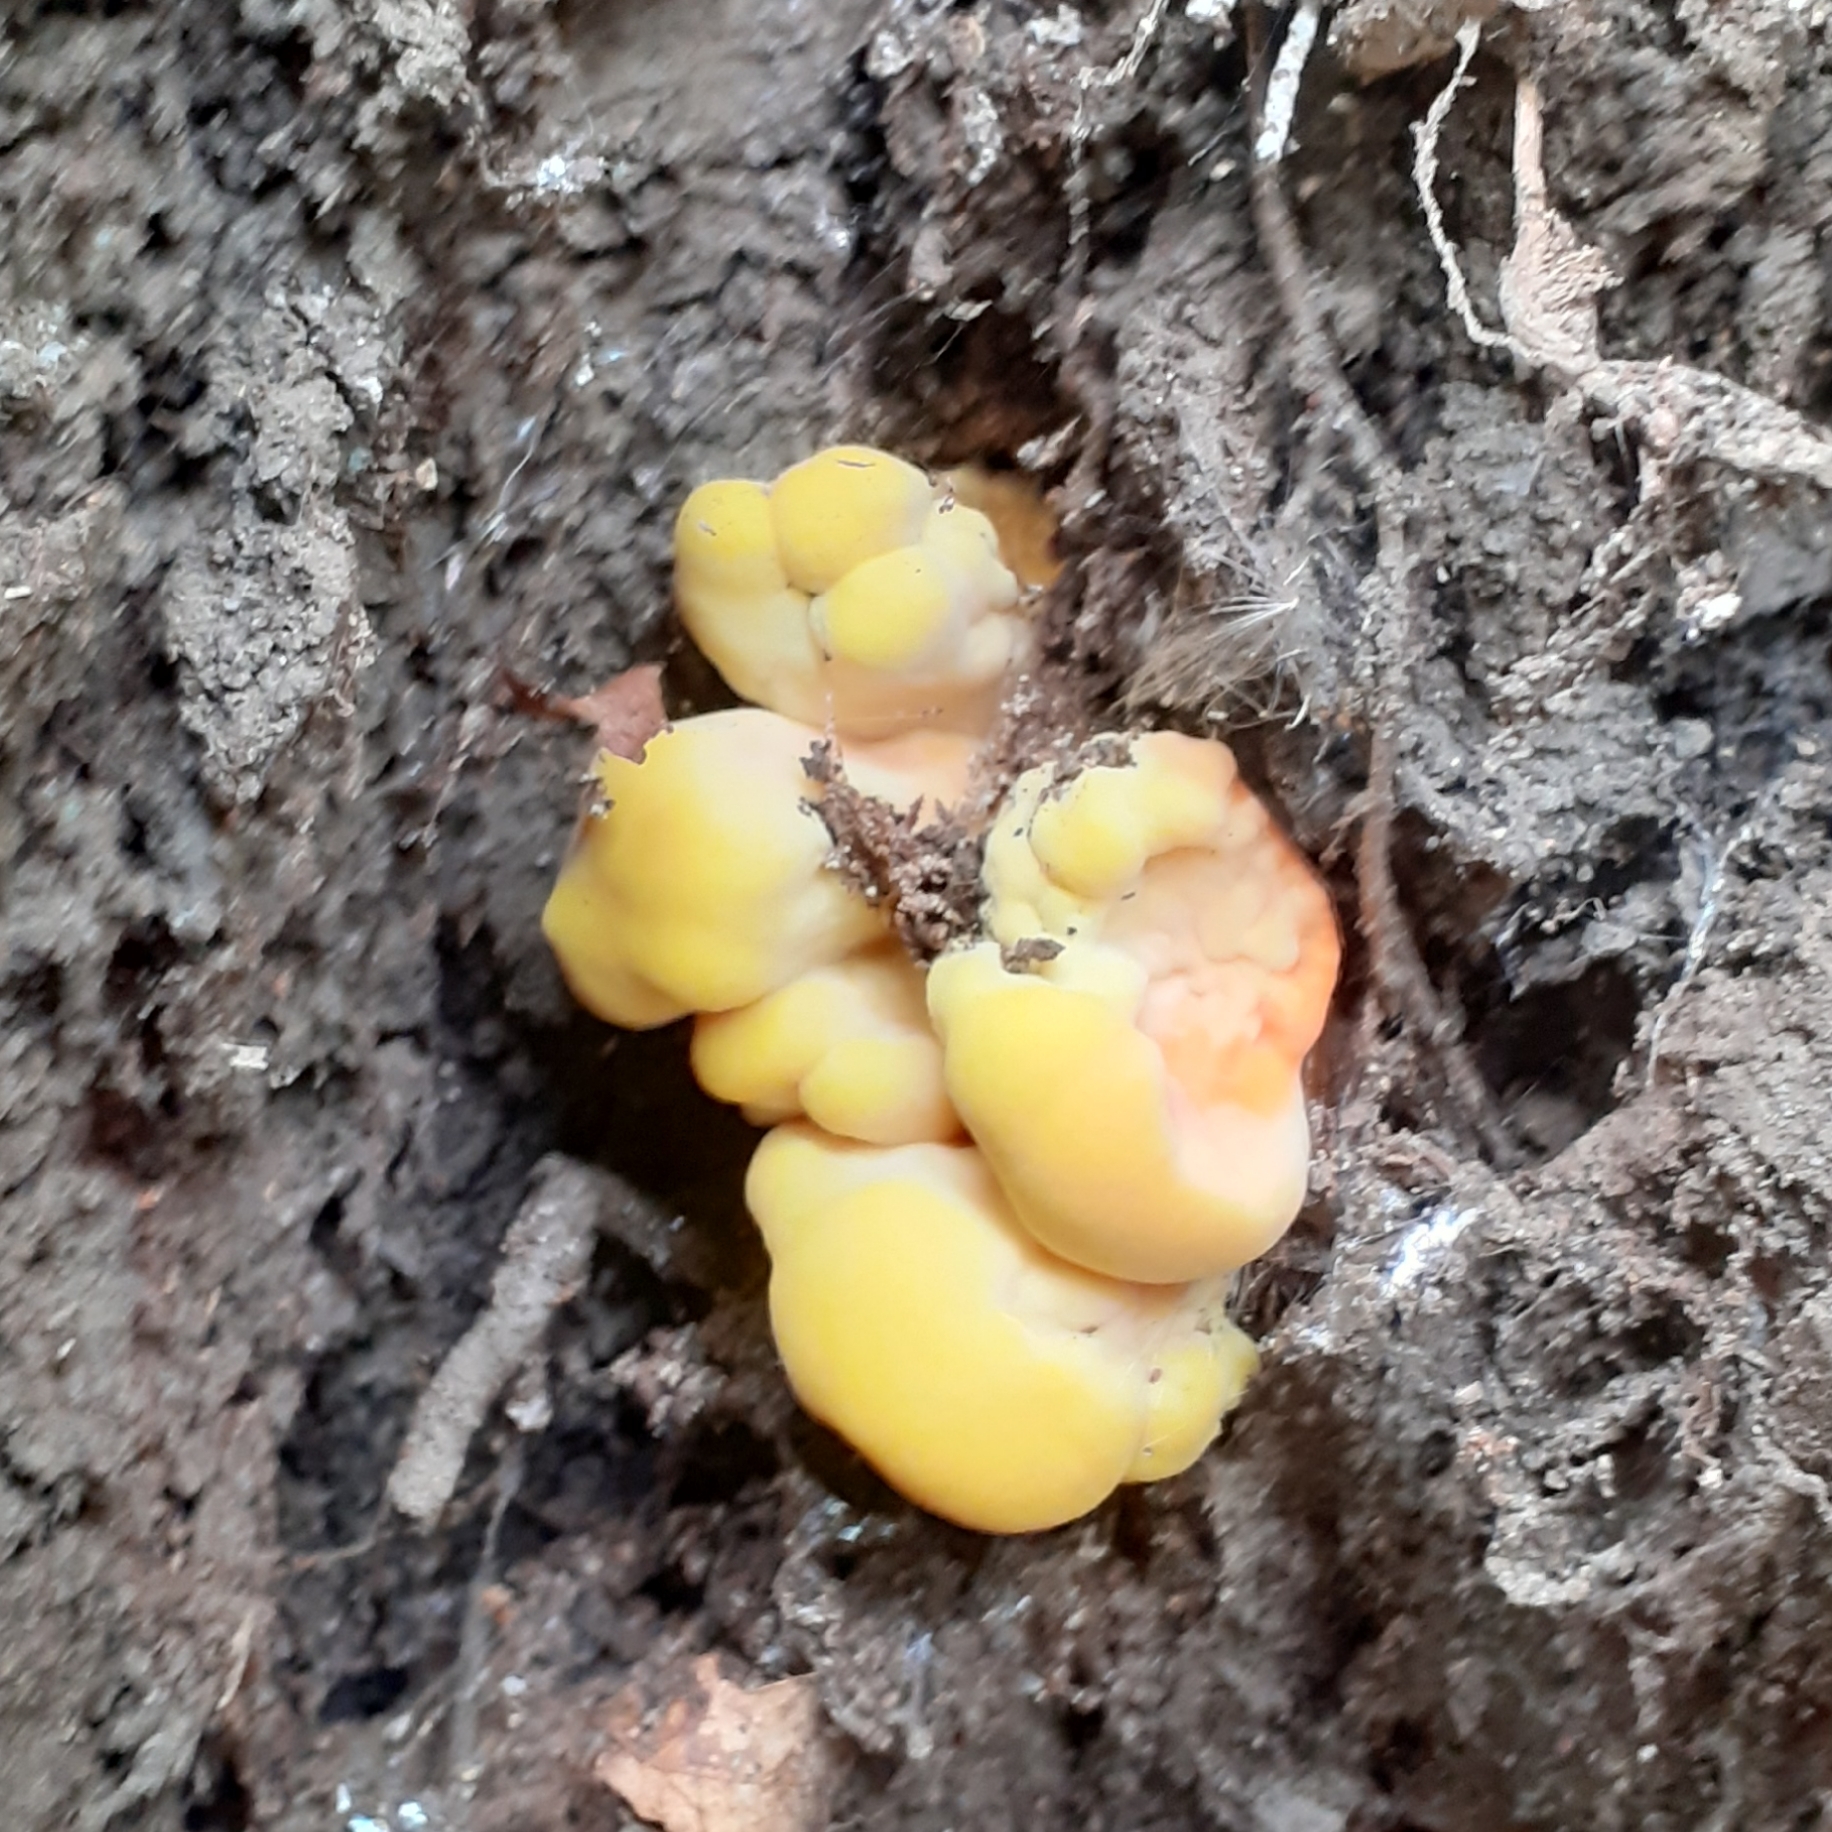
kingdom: Fungi
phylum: Basidiomycota
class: Agaricomycetes
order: Polyporales
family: Laetiporaceae
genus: Laetiporus
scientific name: Laetiporus sulphureus
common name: Chicken of the woods
